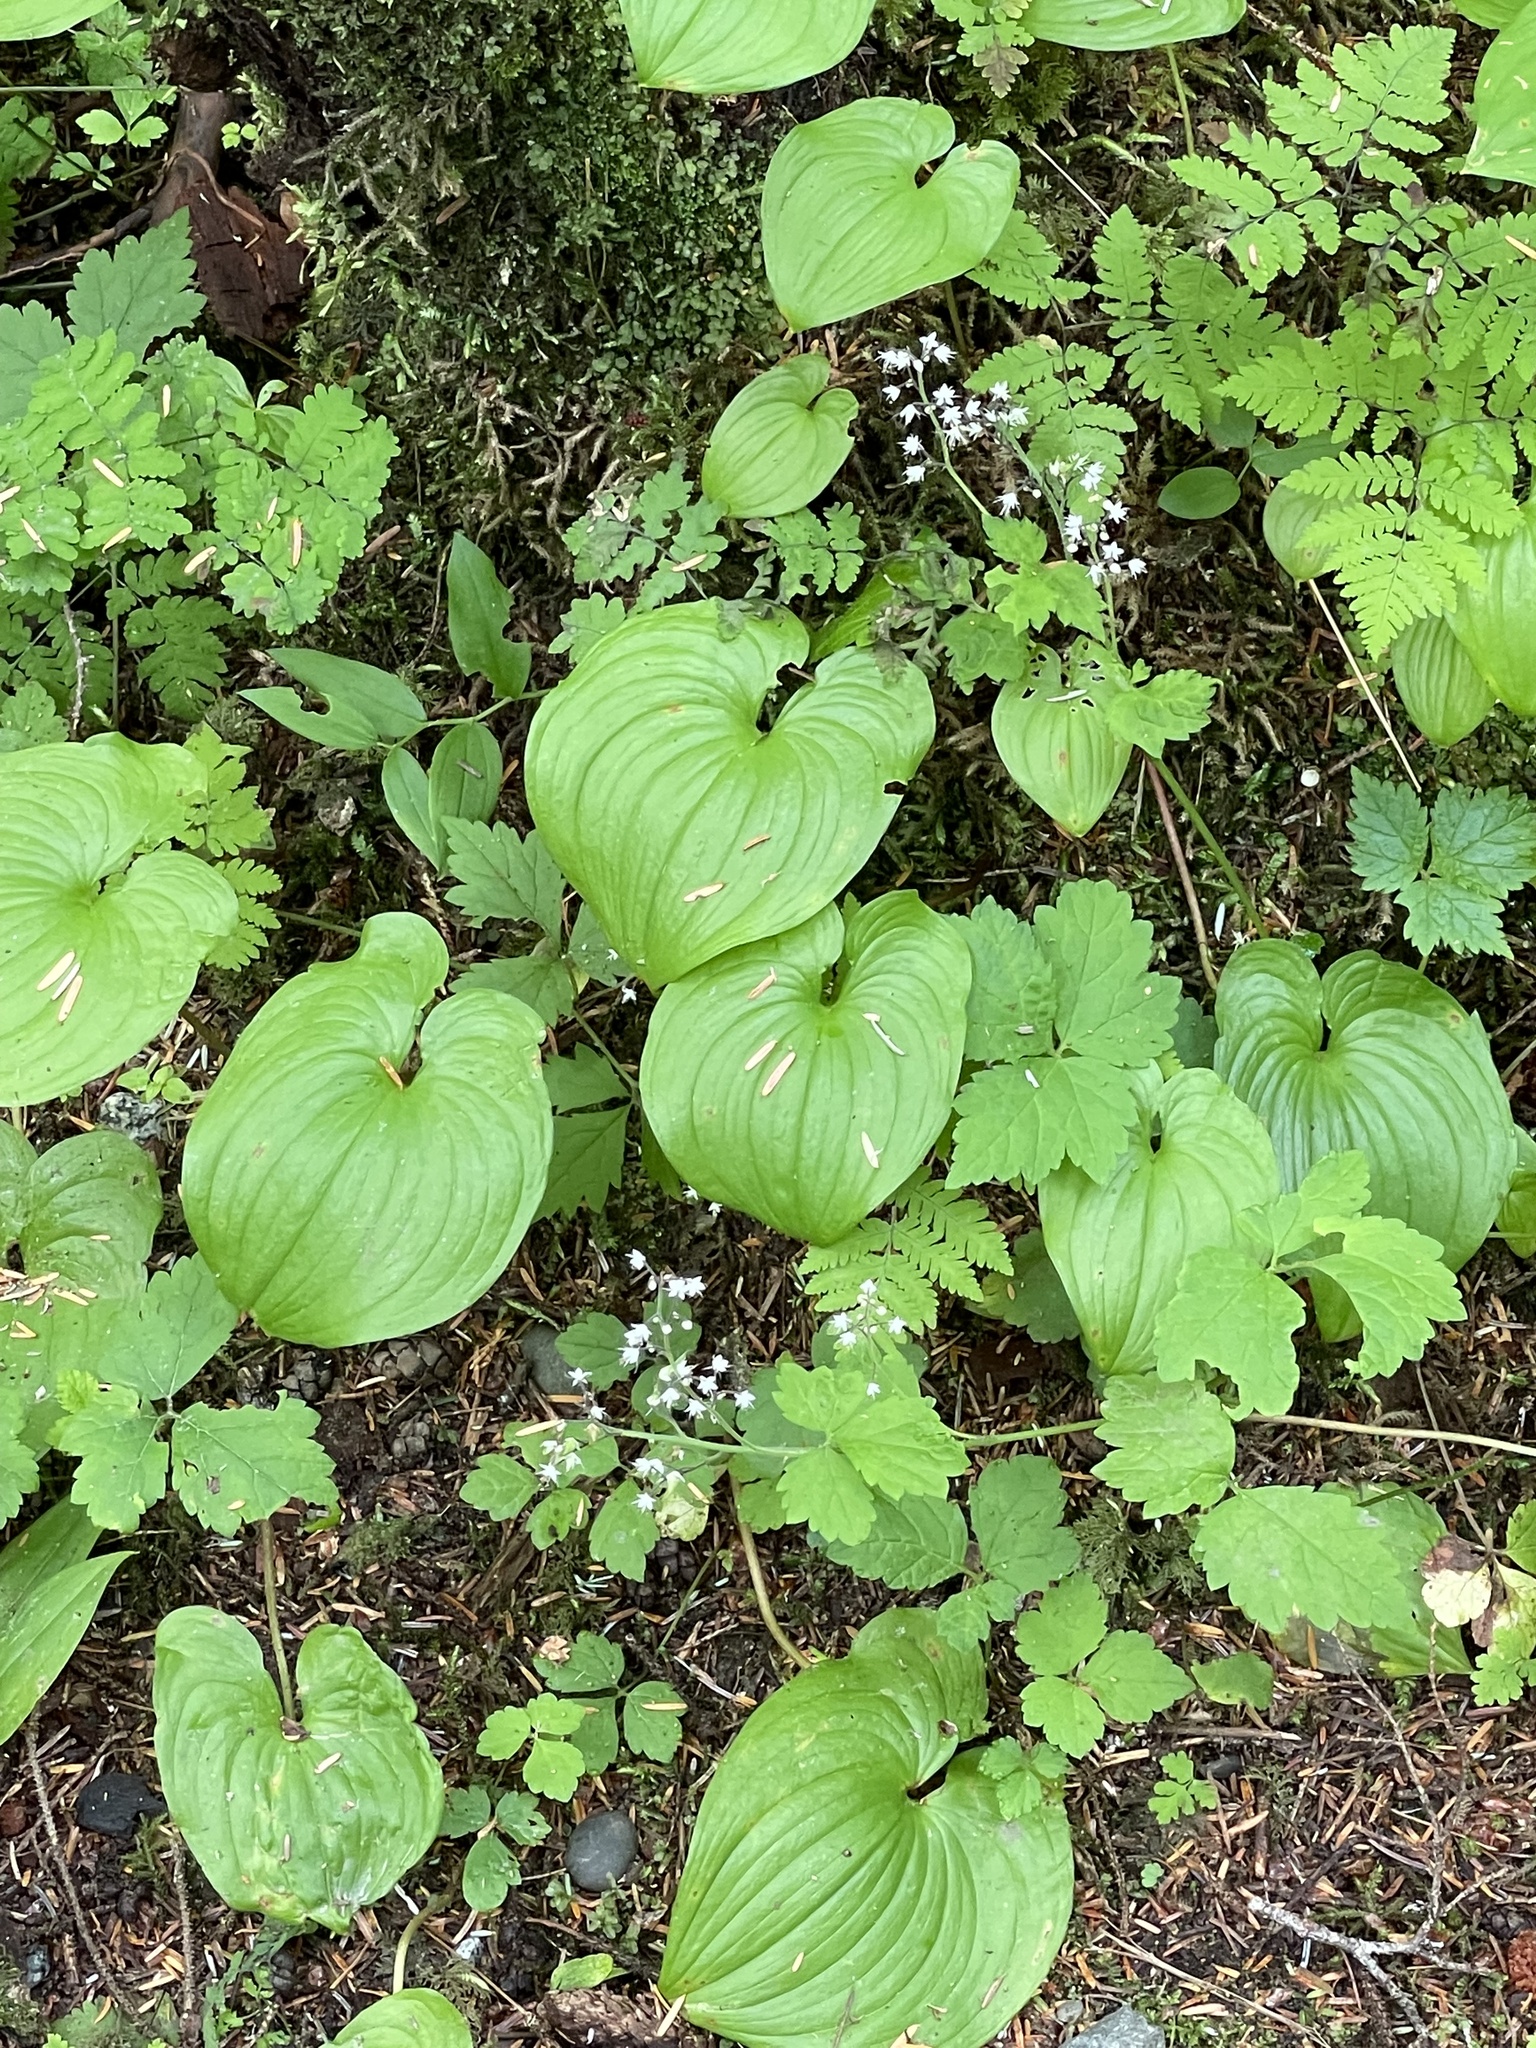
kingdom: Plantae
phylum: Tracheophyta
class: Liliopsida
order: Asparagales
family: Asparagaceae
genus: Maianthemum
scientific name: Maianthemum dilatatum
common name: False lily-of-the-valley
